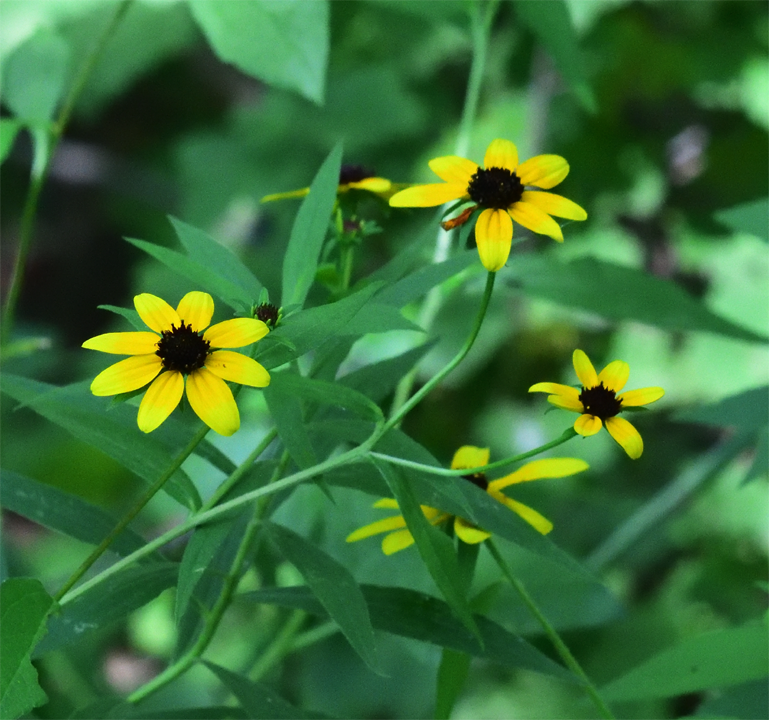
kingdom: Plantae
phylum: Tracheophyta
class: Magnoliopsida
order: Asterales
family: Asteraceae
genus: Rudbeckia
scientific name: Rudbeckia triloba
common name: Thin-leaved coneflower
